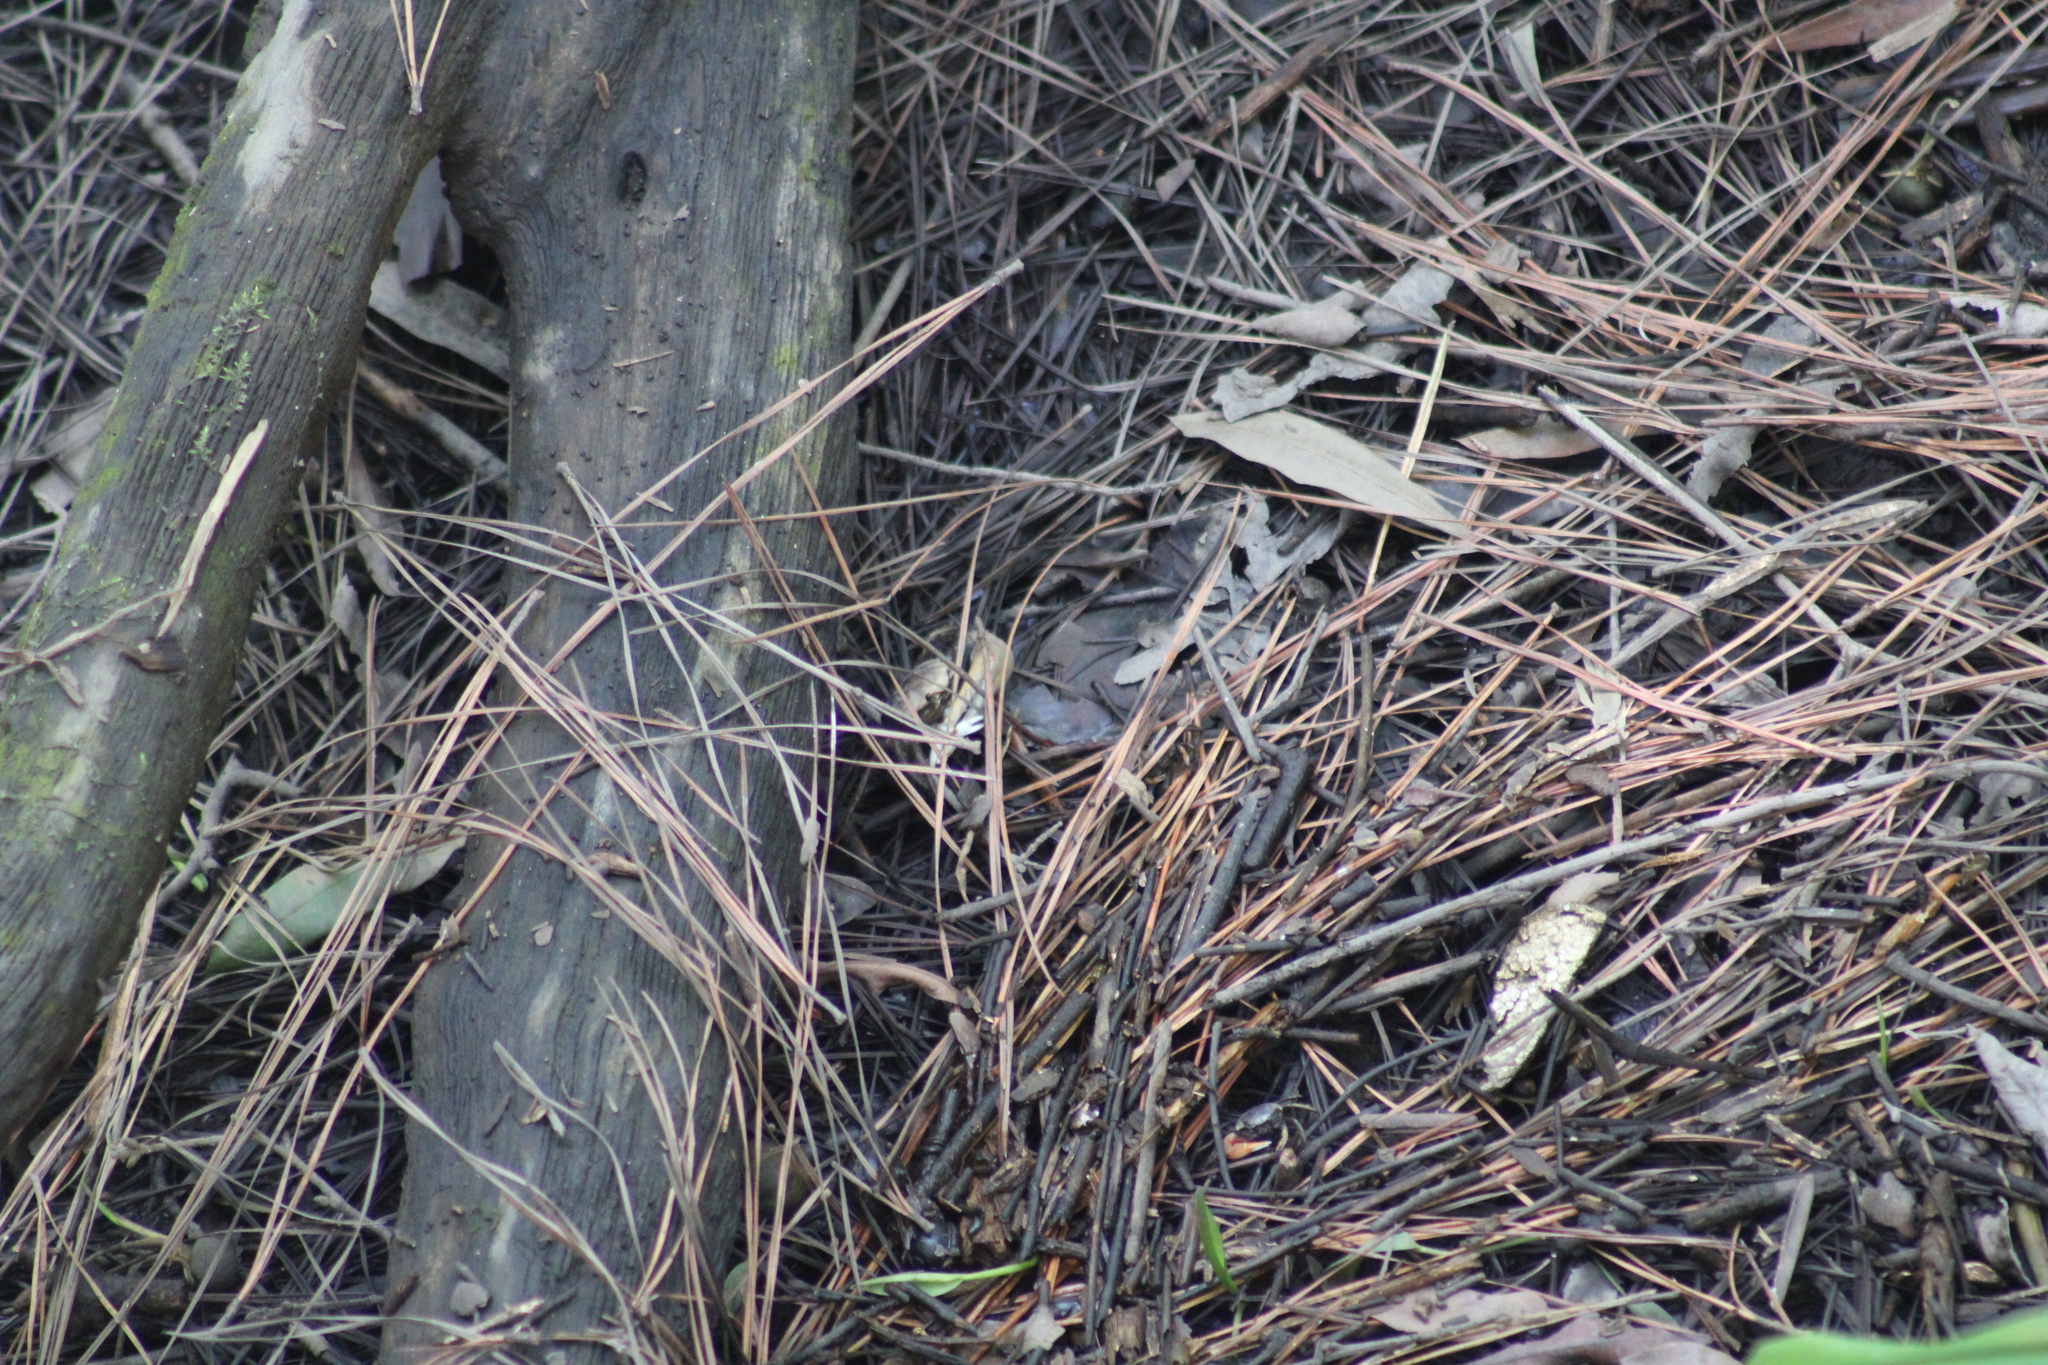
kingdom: Animalia
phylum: Arthropoda
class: Malacostraca
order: Decapoda
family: Ocypodidae
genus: Minuca
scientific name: Minuca minax
